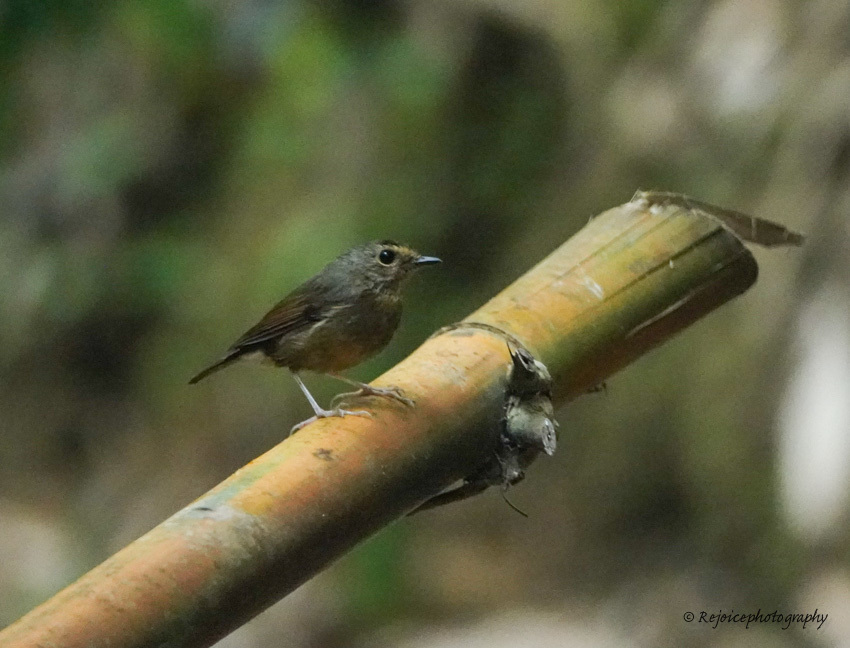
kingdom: Animalia
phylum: Chordata
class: Aves
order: Passeriformes
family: Muscicapidae
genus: Ficedula
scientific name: Ficedula hyperythra
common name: Snowy-browed flycatcher
